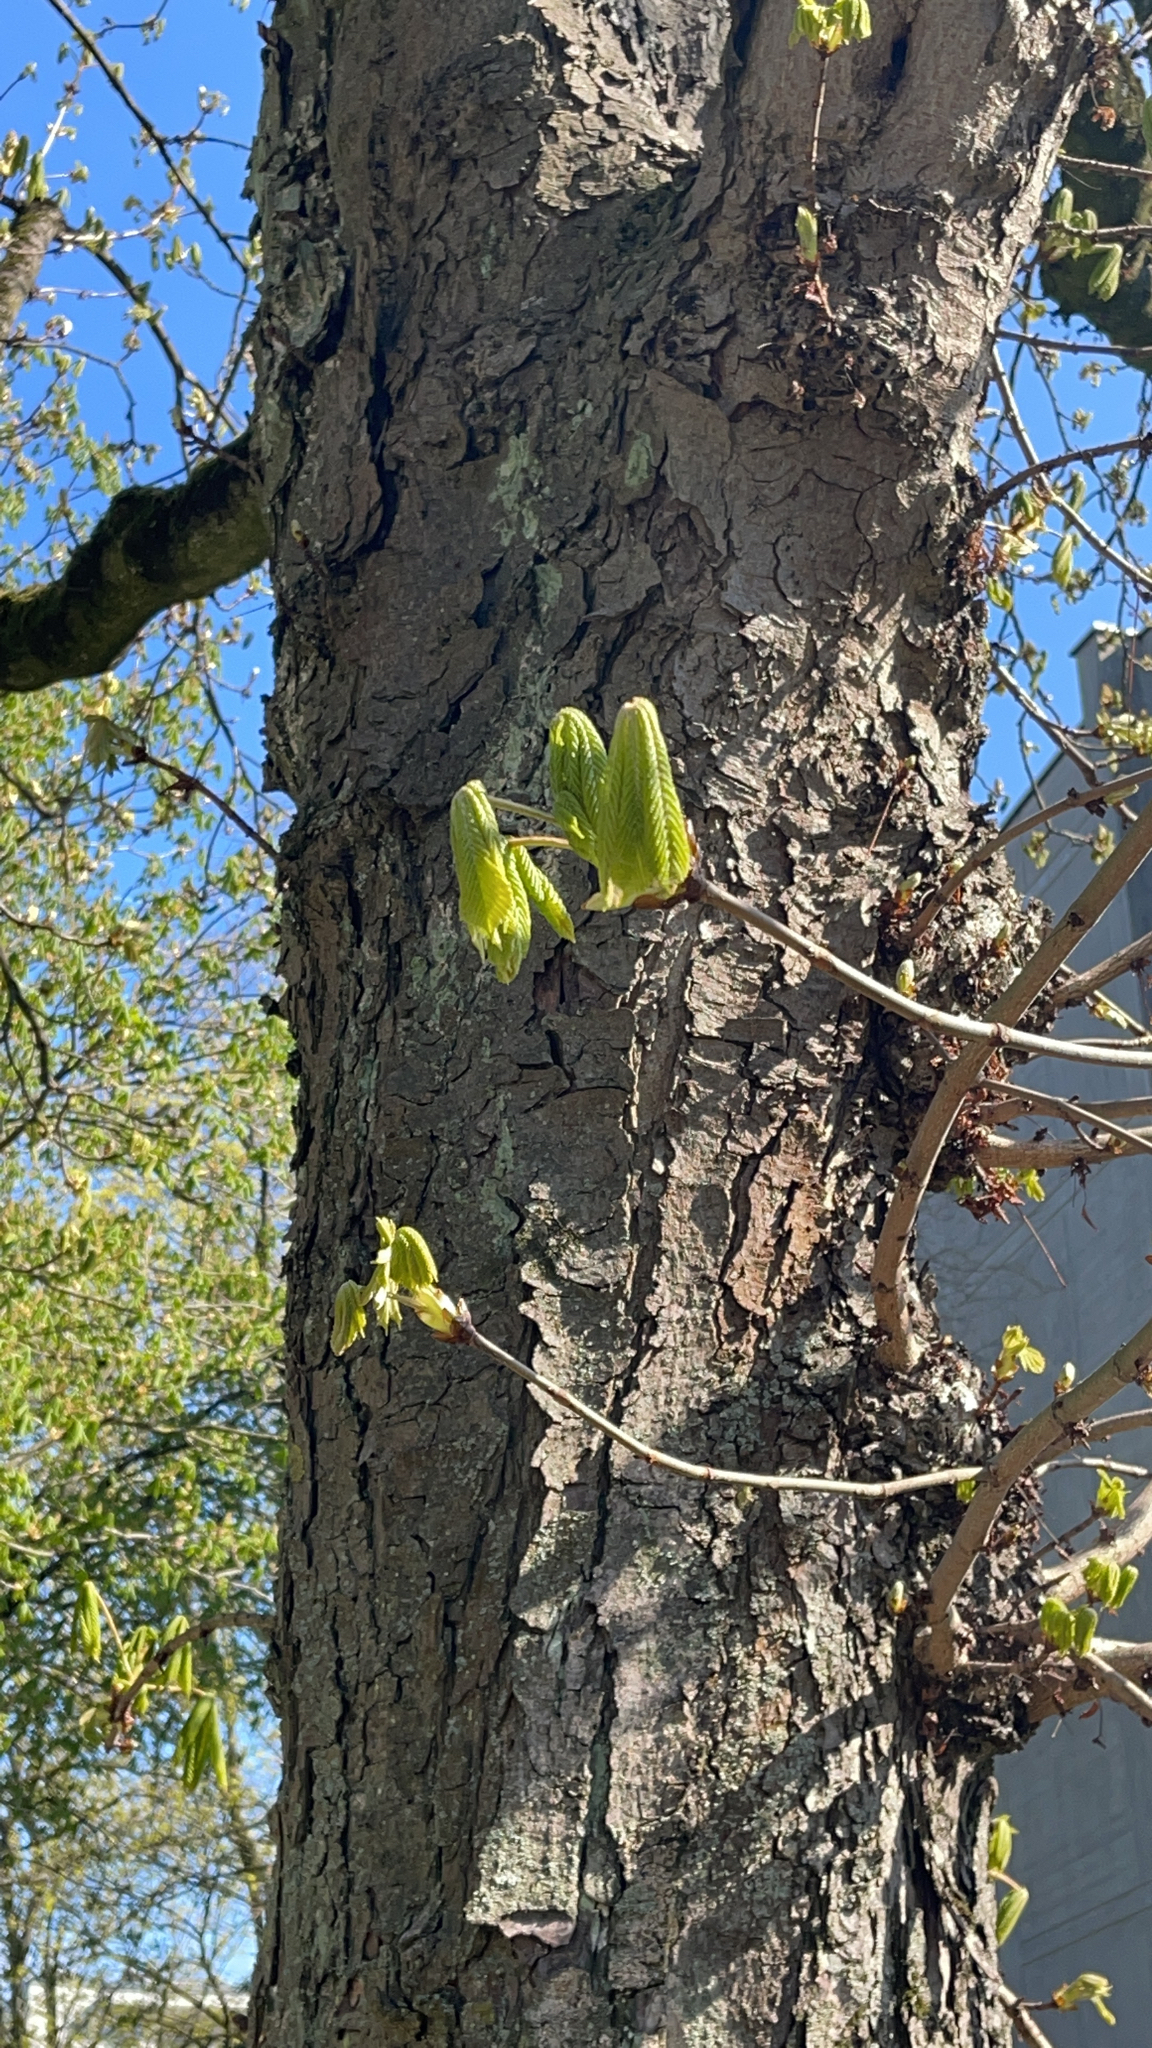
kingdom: Plantae
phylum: Tracheophyta
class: Magnoliopsida
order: Sapindales
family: Sapindaceae
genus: Aesculus
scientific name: Aesculus hippocastanum
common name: Horse-chestnut
